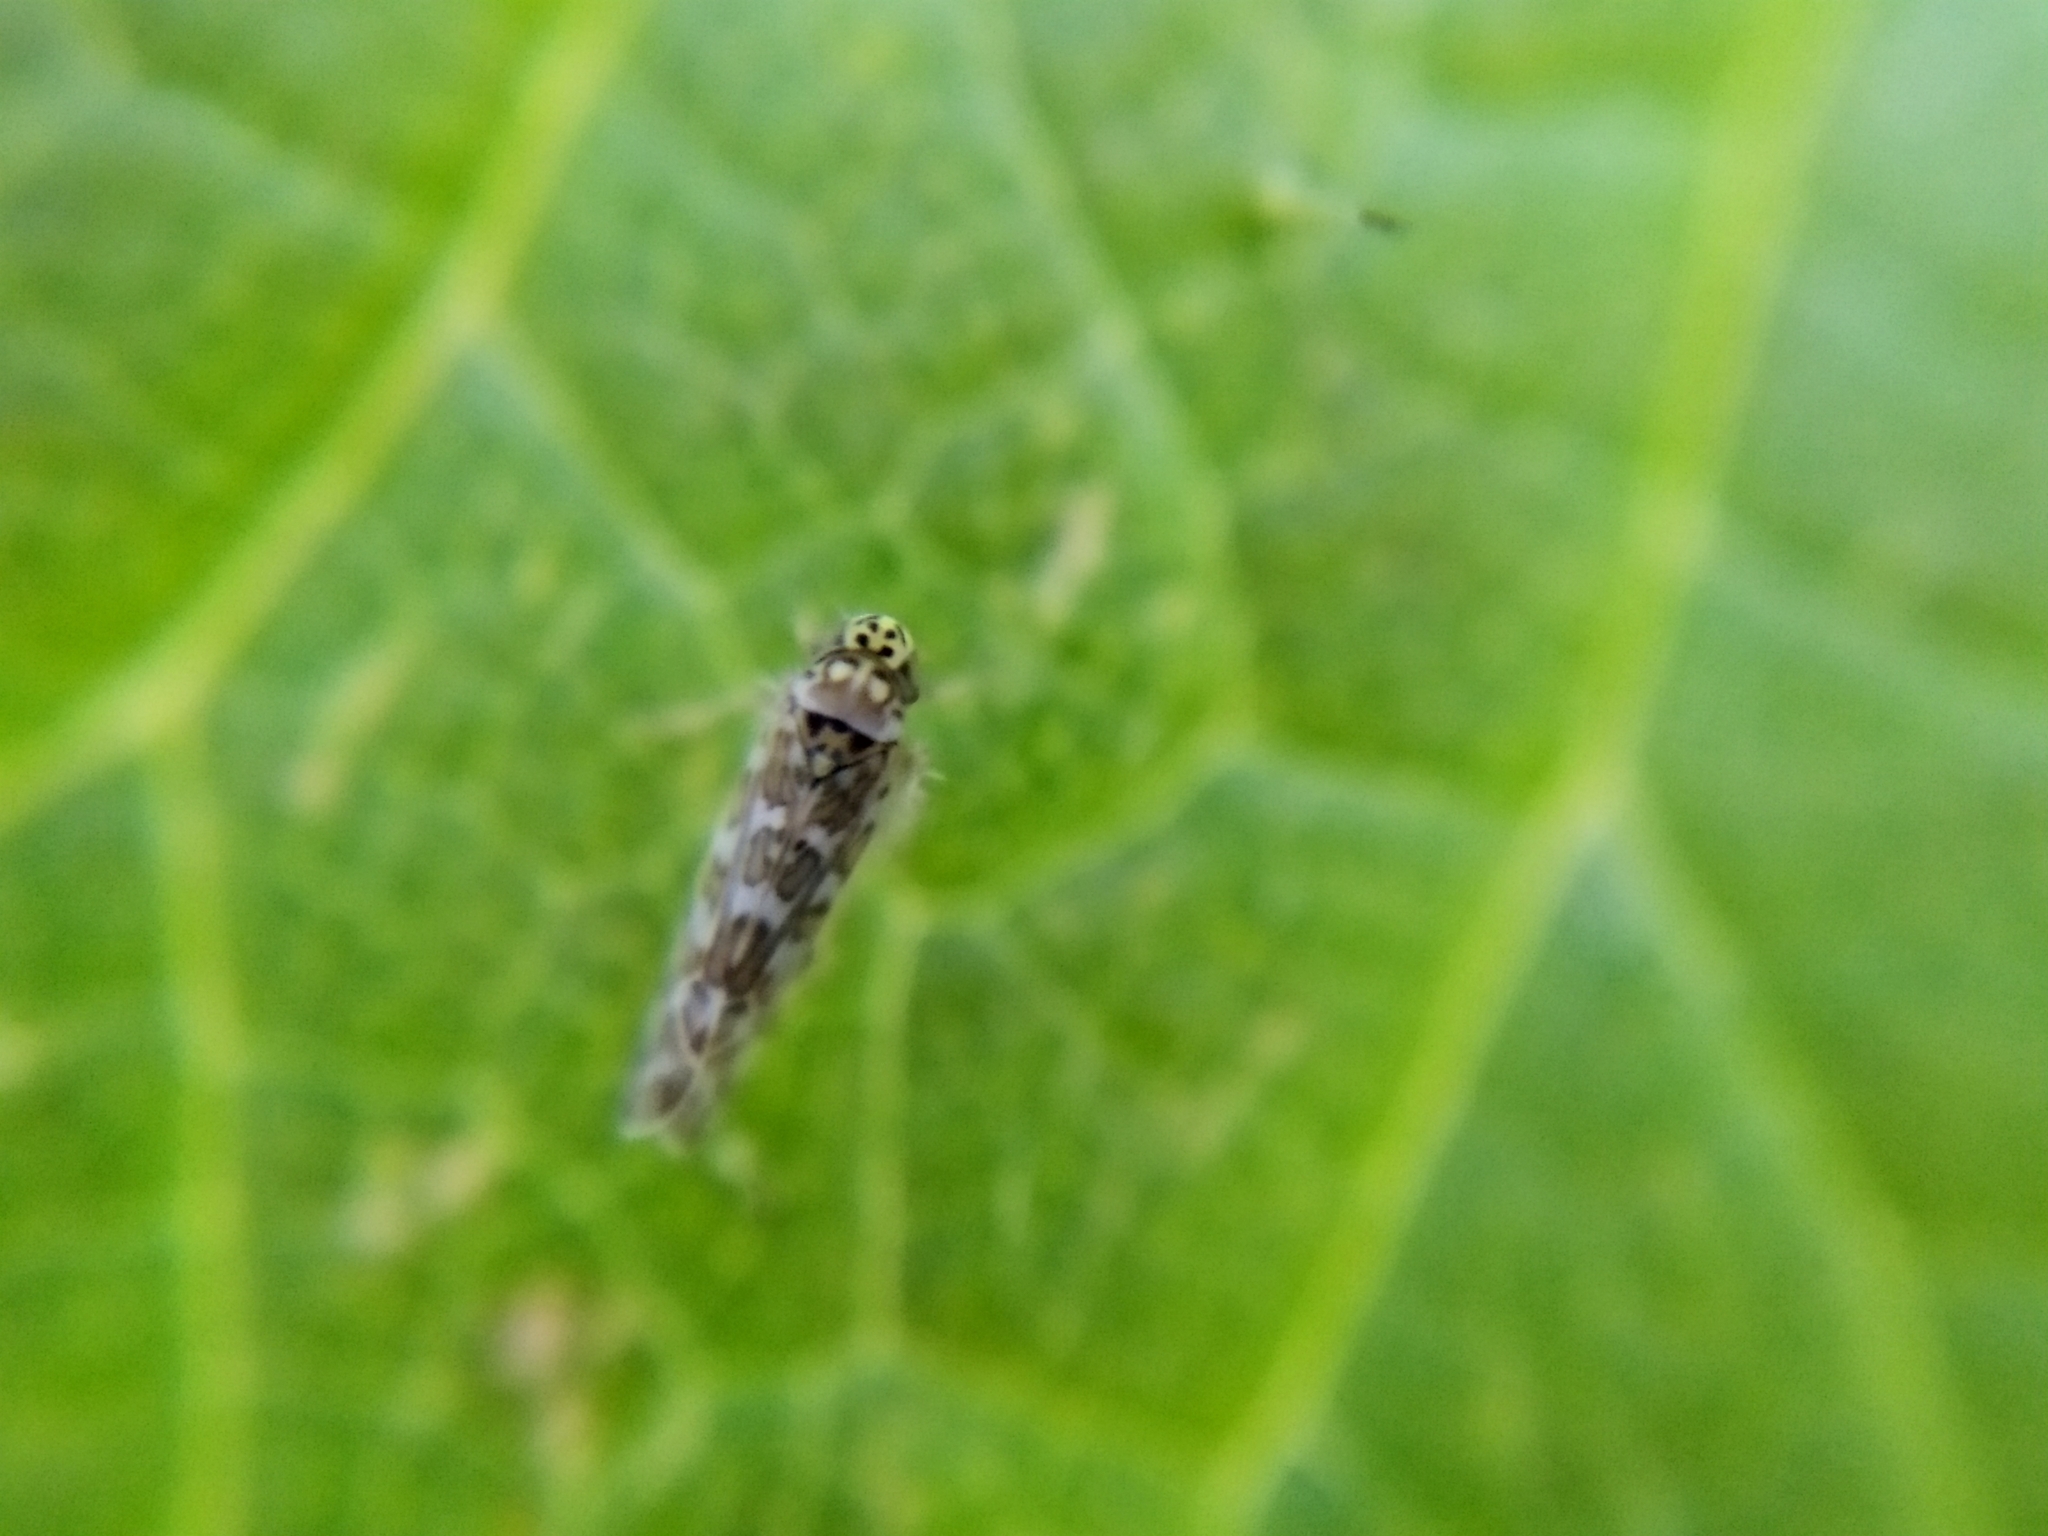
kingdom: Animalia
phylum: Arthropoda
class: Insecta
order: Hemiptera
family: Cicadellidae
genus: Eupteryx
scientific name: Eupteryx decemnotata
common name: Ligurian leafhopper
